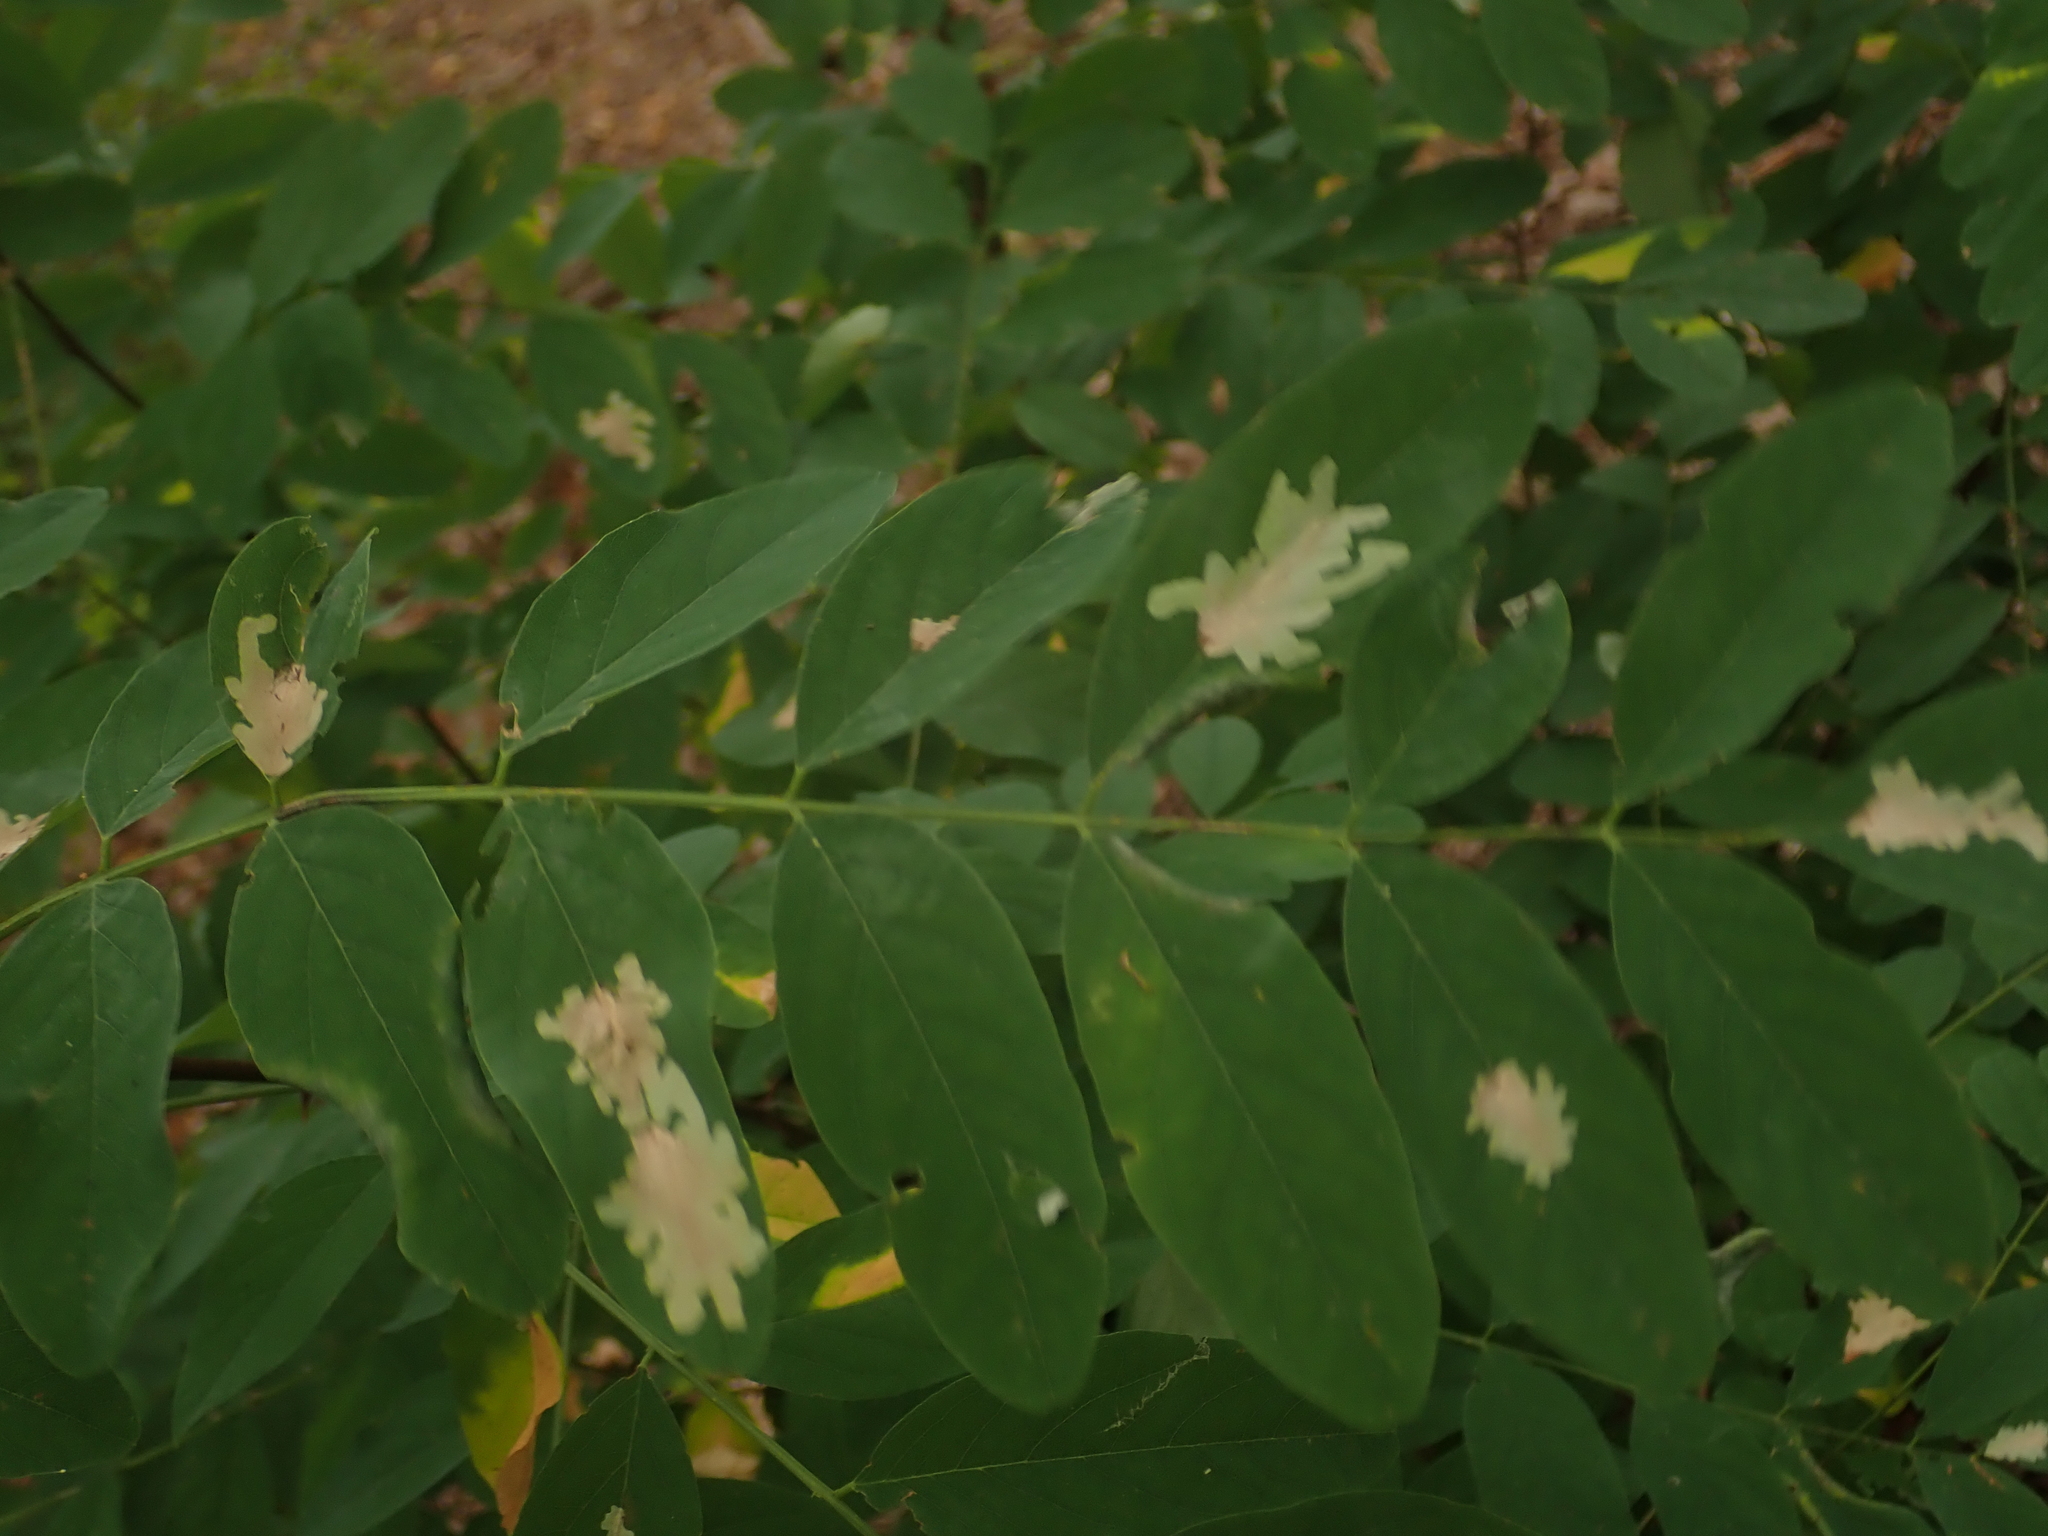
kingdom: Plantae
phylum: Tracheophyta
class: Magnoliopsida
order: Fabales
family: Fabaceae
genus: Robinia
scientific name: Robinia pseudoacacia
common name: Black locust
